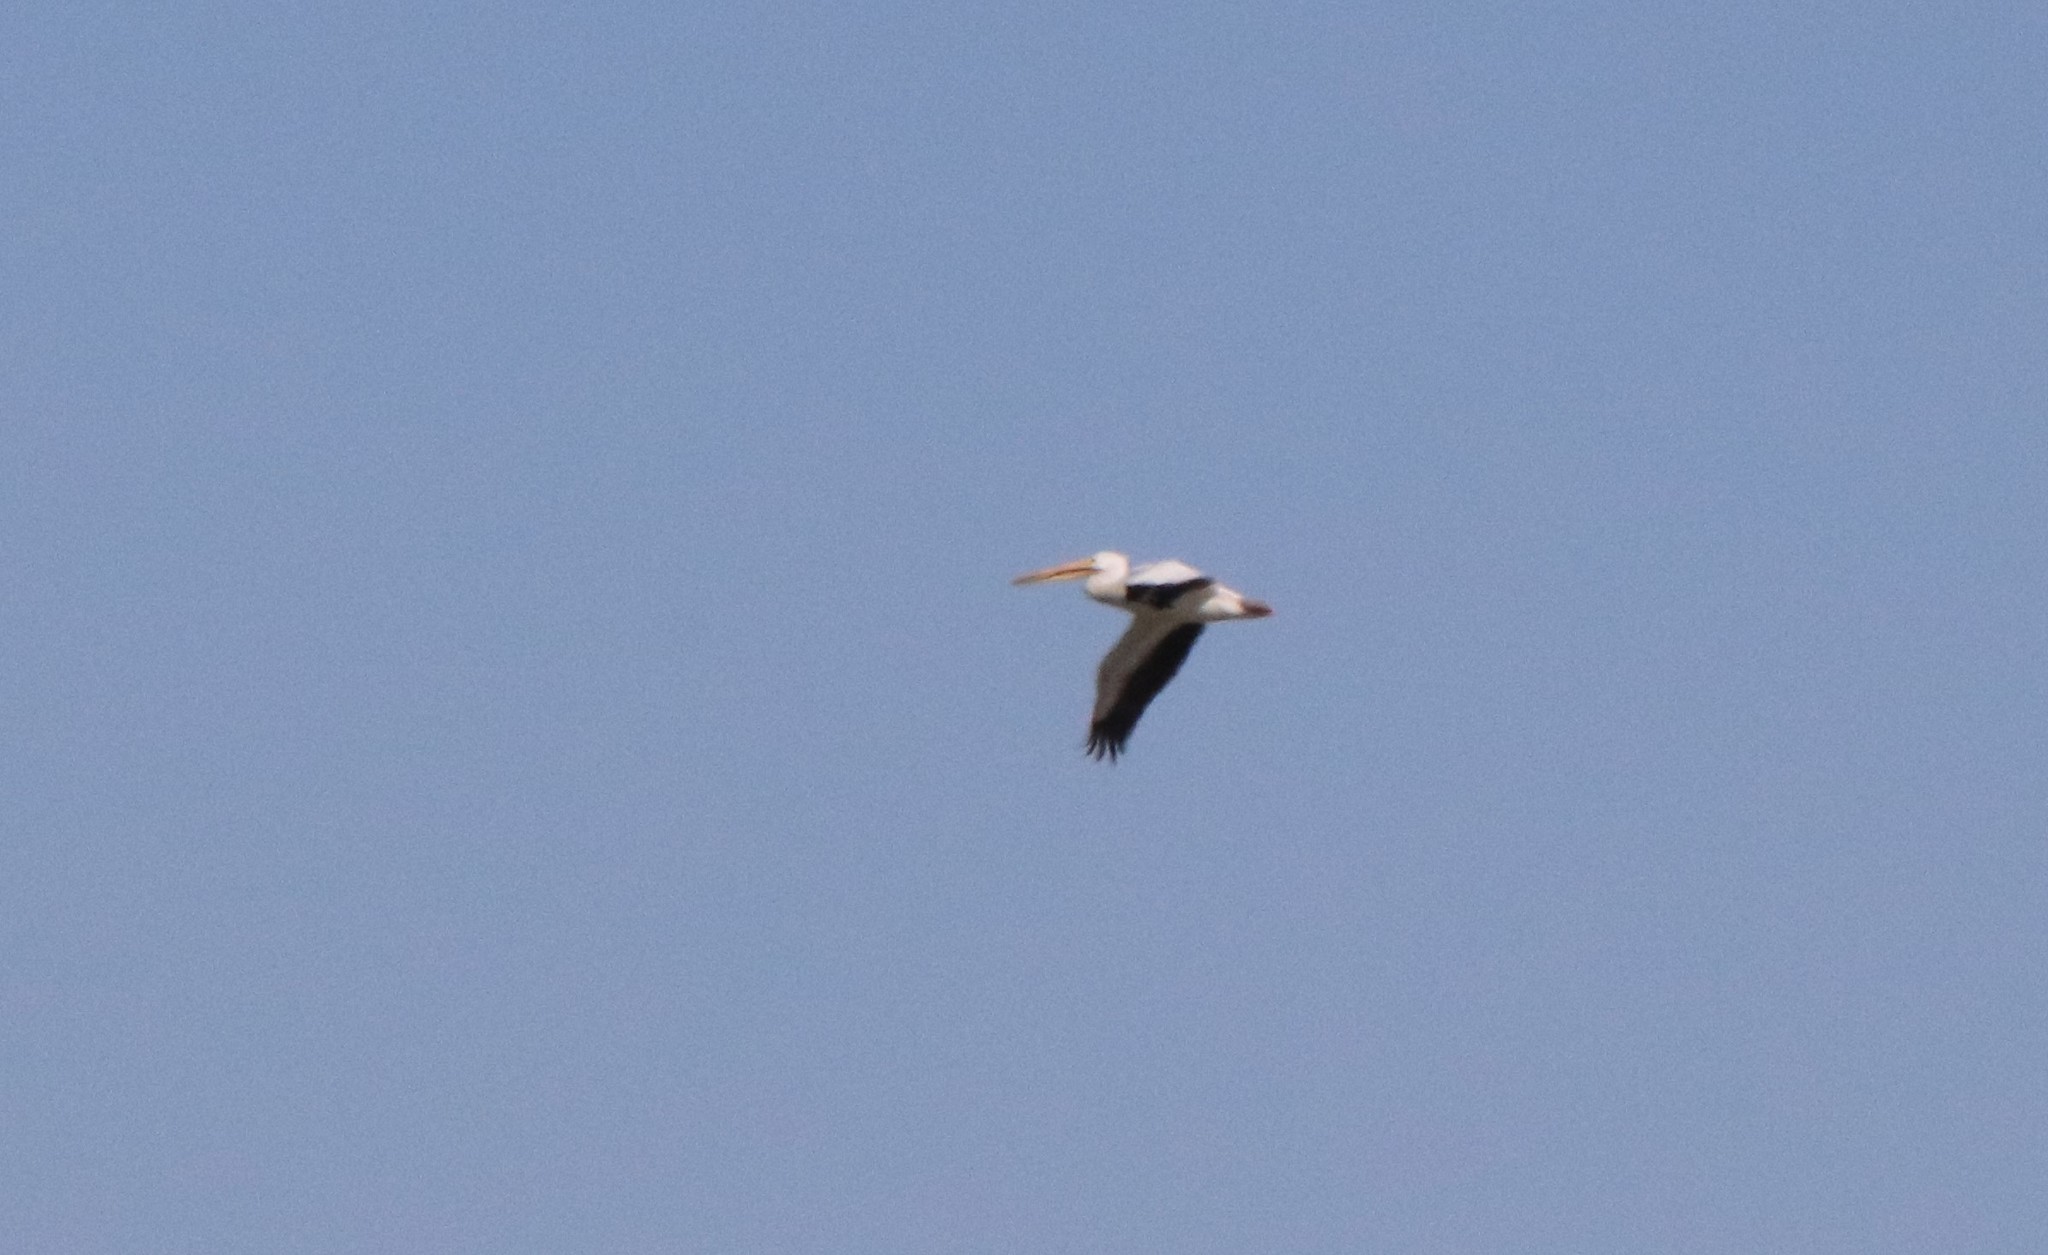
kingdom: Animalia
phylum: Chordata
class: Aves
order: Pelecaniformes
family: Pelecanidae
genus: Pelecanus
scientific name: Pelecanus erythrorhynchos
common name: American white pelican
